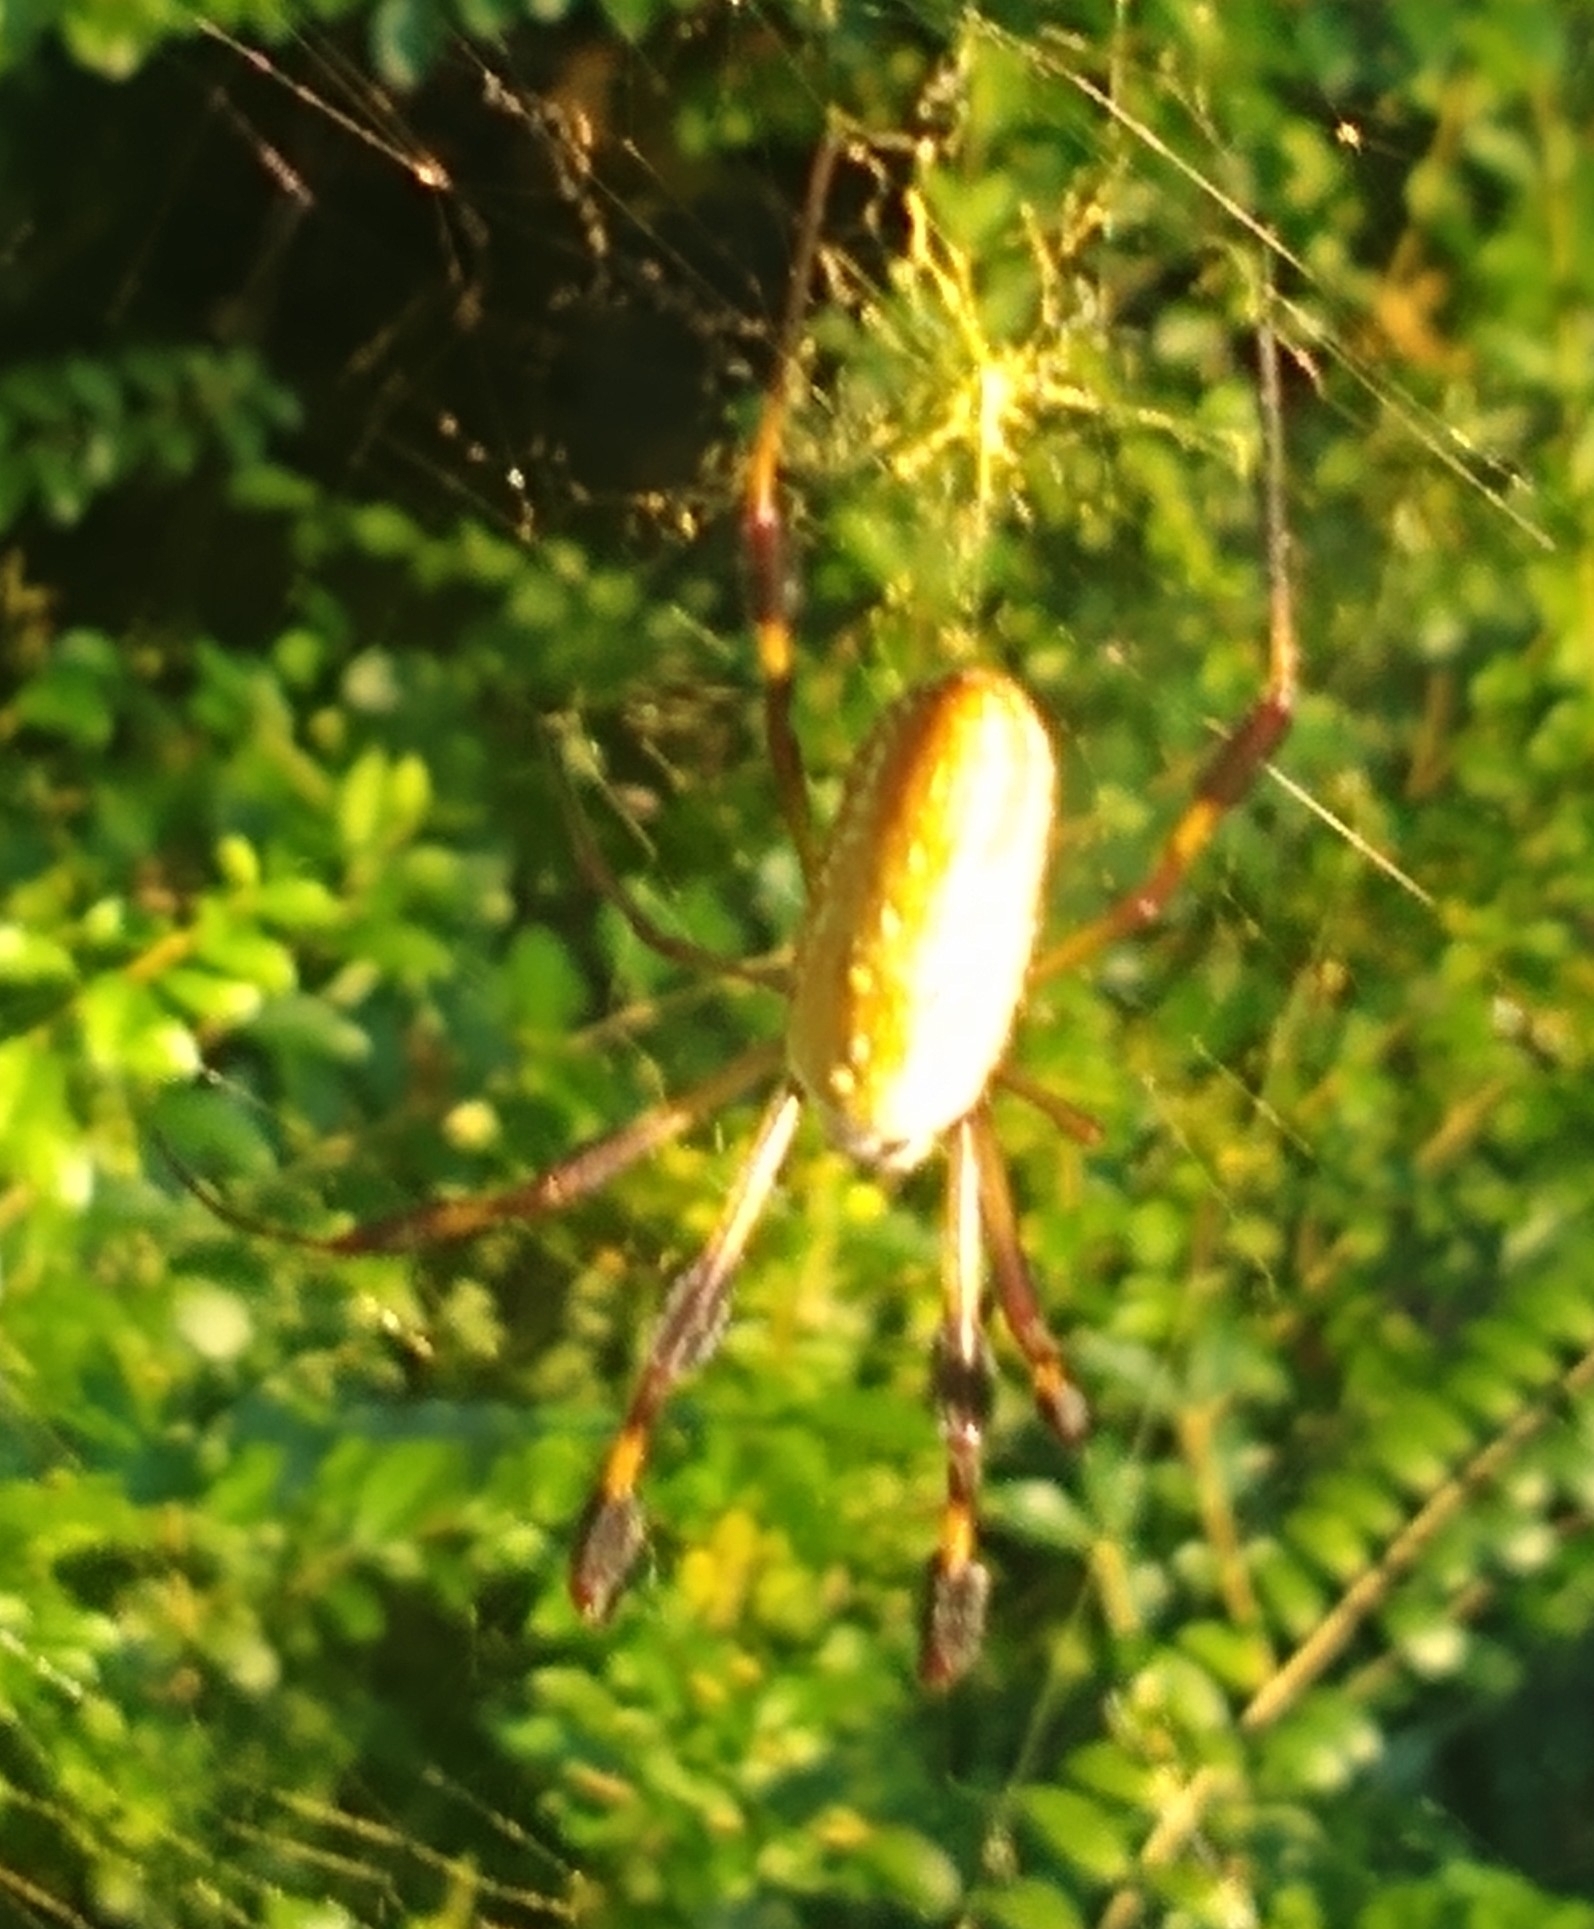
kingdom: Animalia
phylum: Arthropoda
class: Arachnida
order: Araneae
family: Araneidae
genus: Trichonephila
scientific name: Trichonephila clavipes
